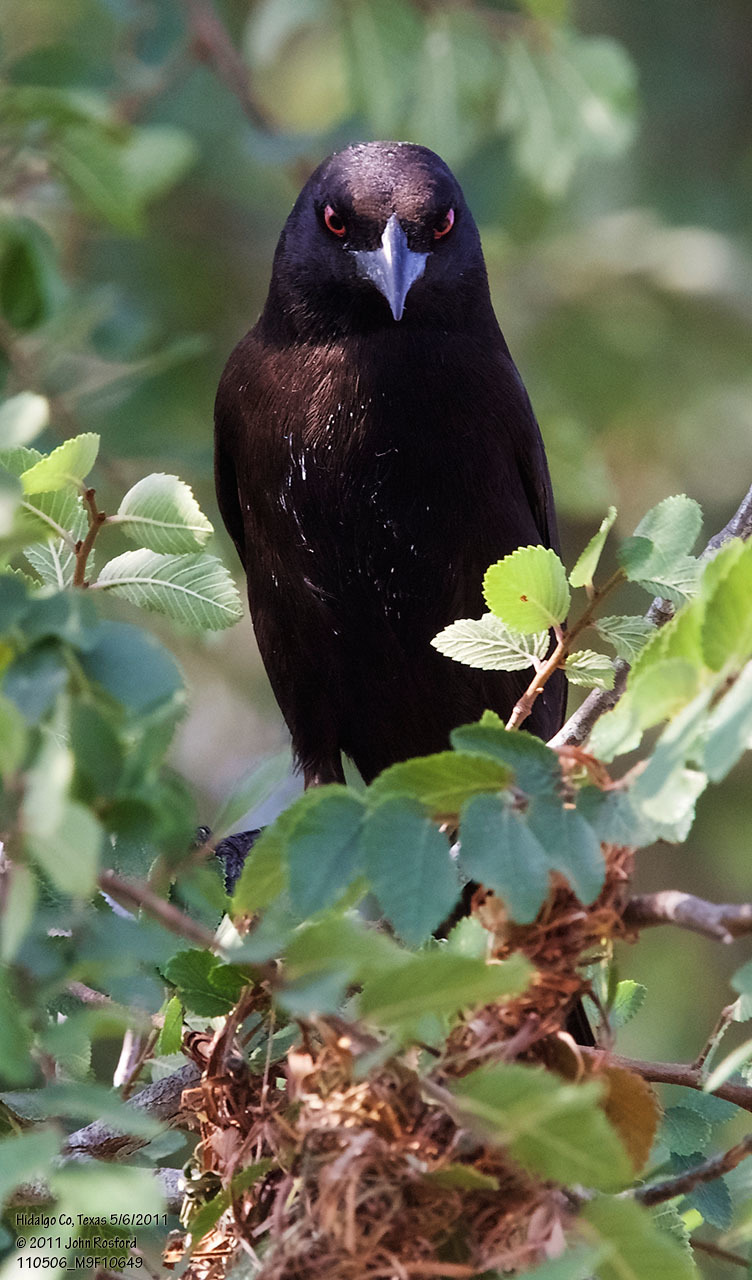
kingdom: Animalia
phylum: Chordata
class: Aves
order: Passeriformes
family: Icteridae
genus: Molothrus
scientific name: Molothrus aeneus
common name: Bronzed cowbird
